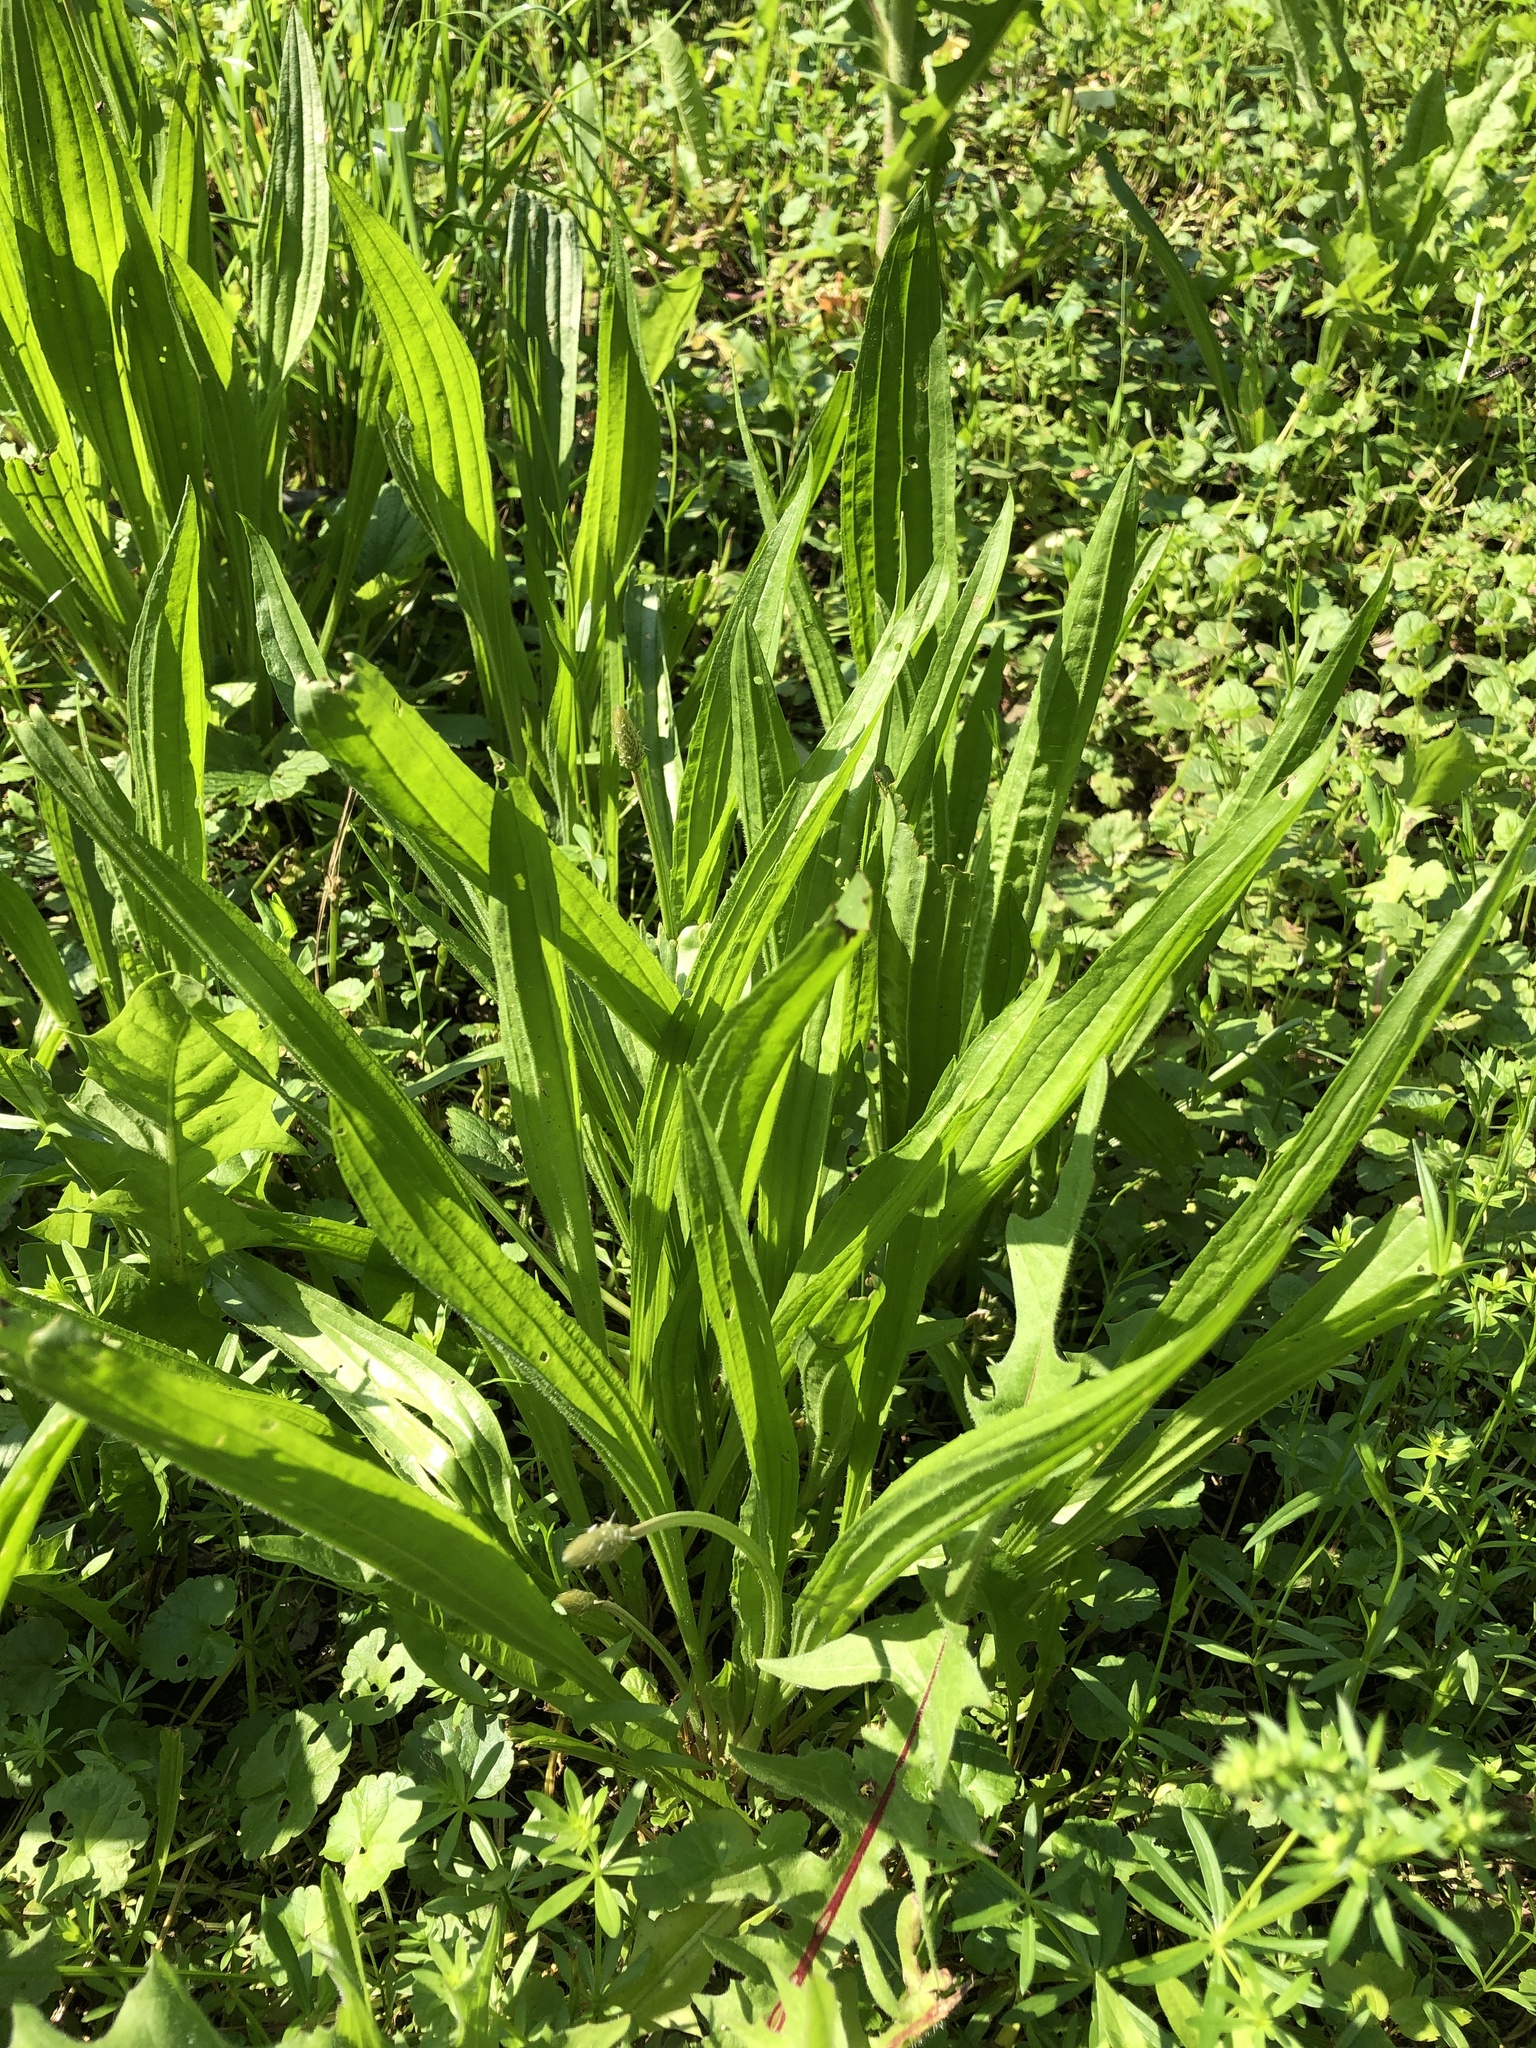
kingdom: Plantae
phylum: Tracheophyta
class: Magnoliopsida
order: Lamiales
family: Plantaginaceae
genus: Plantago
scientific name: Plantago lanceolata
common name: Ribwort plantain
